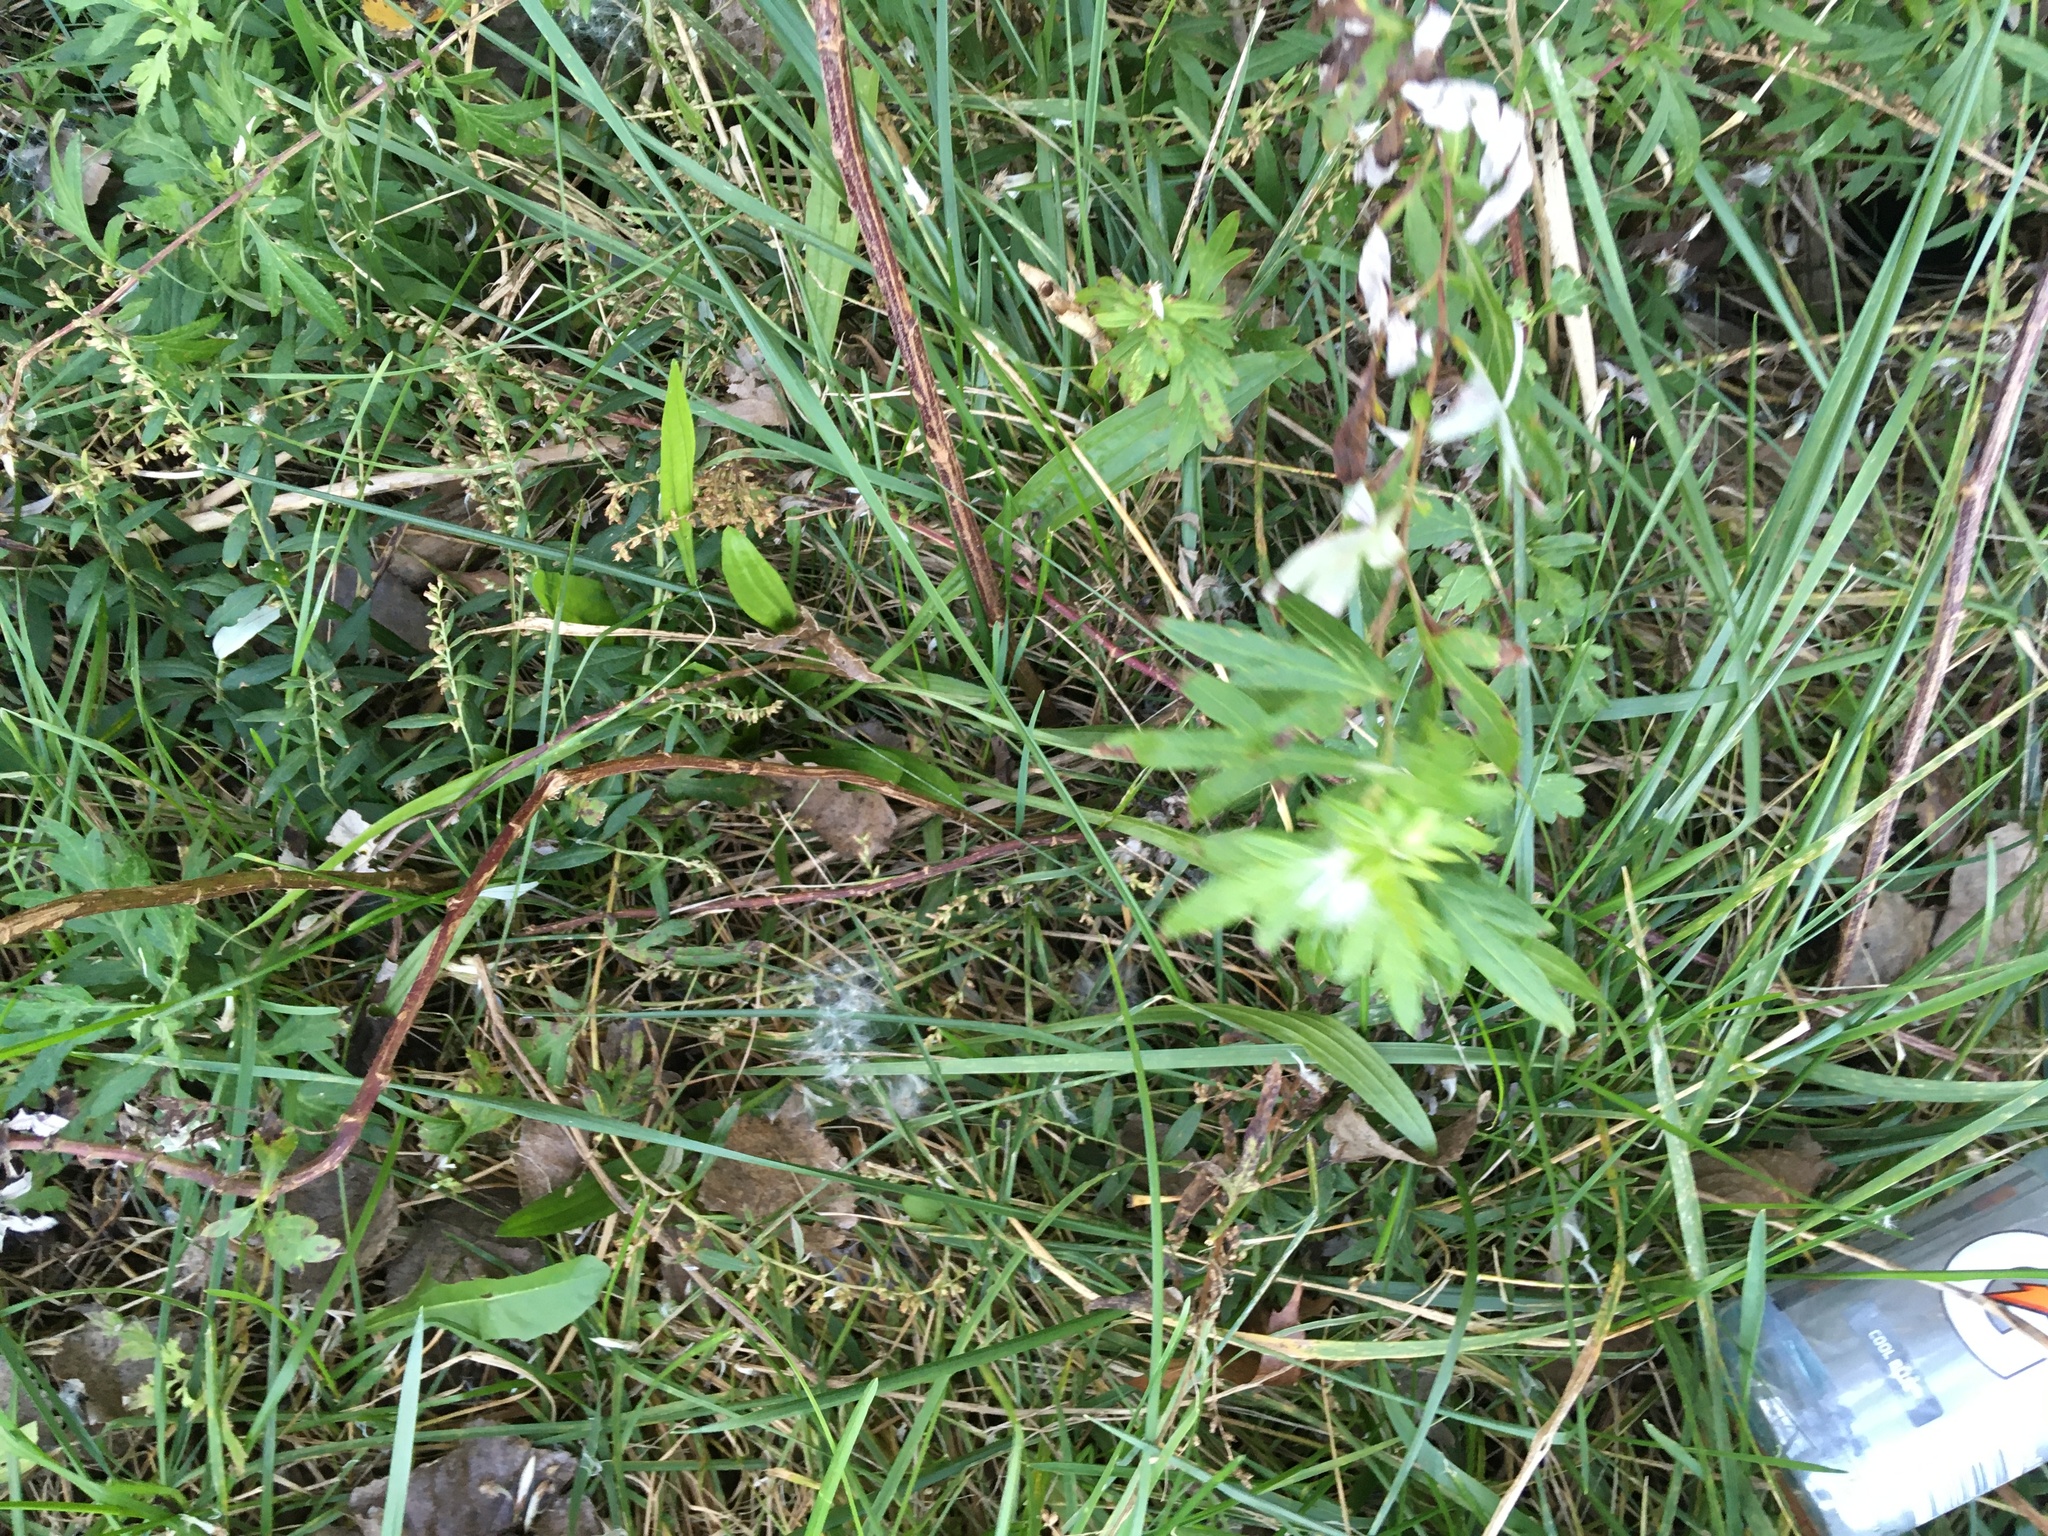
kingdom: Plantae
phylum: Tracheophyta
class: Magnoliopsida
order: Asterales
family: Asteraceae
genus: Artemisia
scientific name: Artemisia vulgaris
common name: Mugwort
